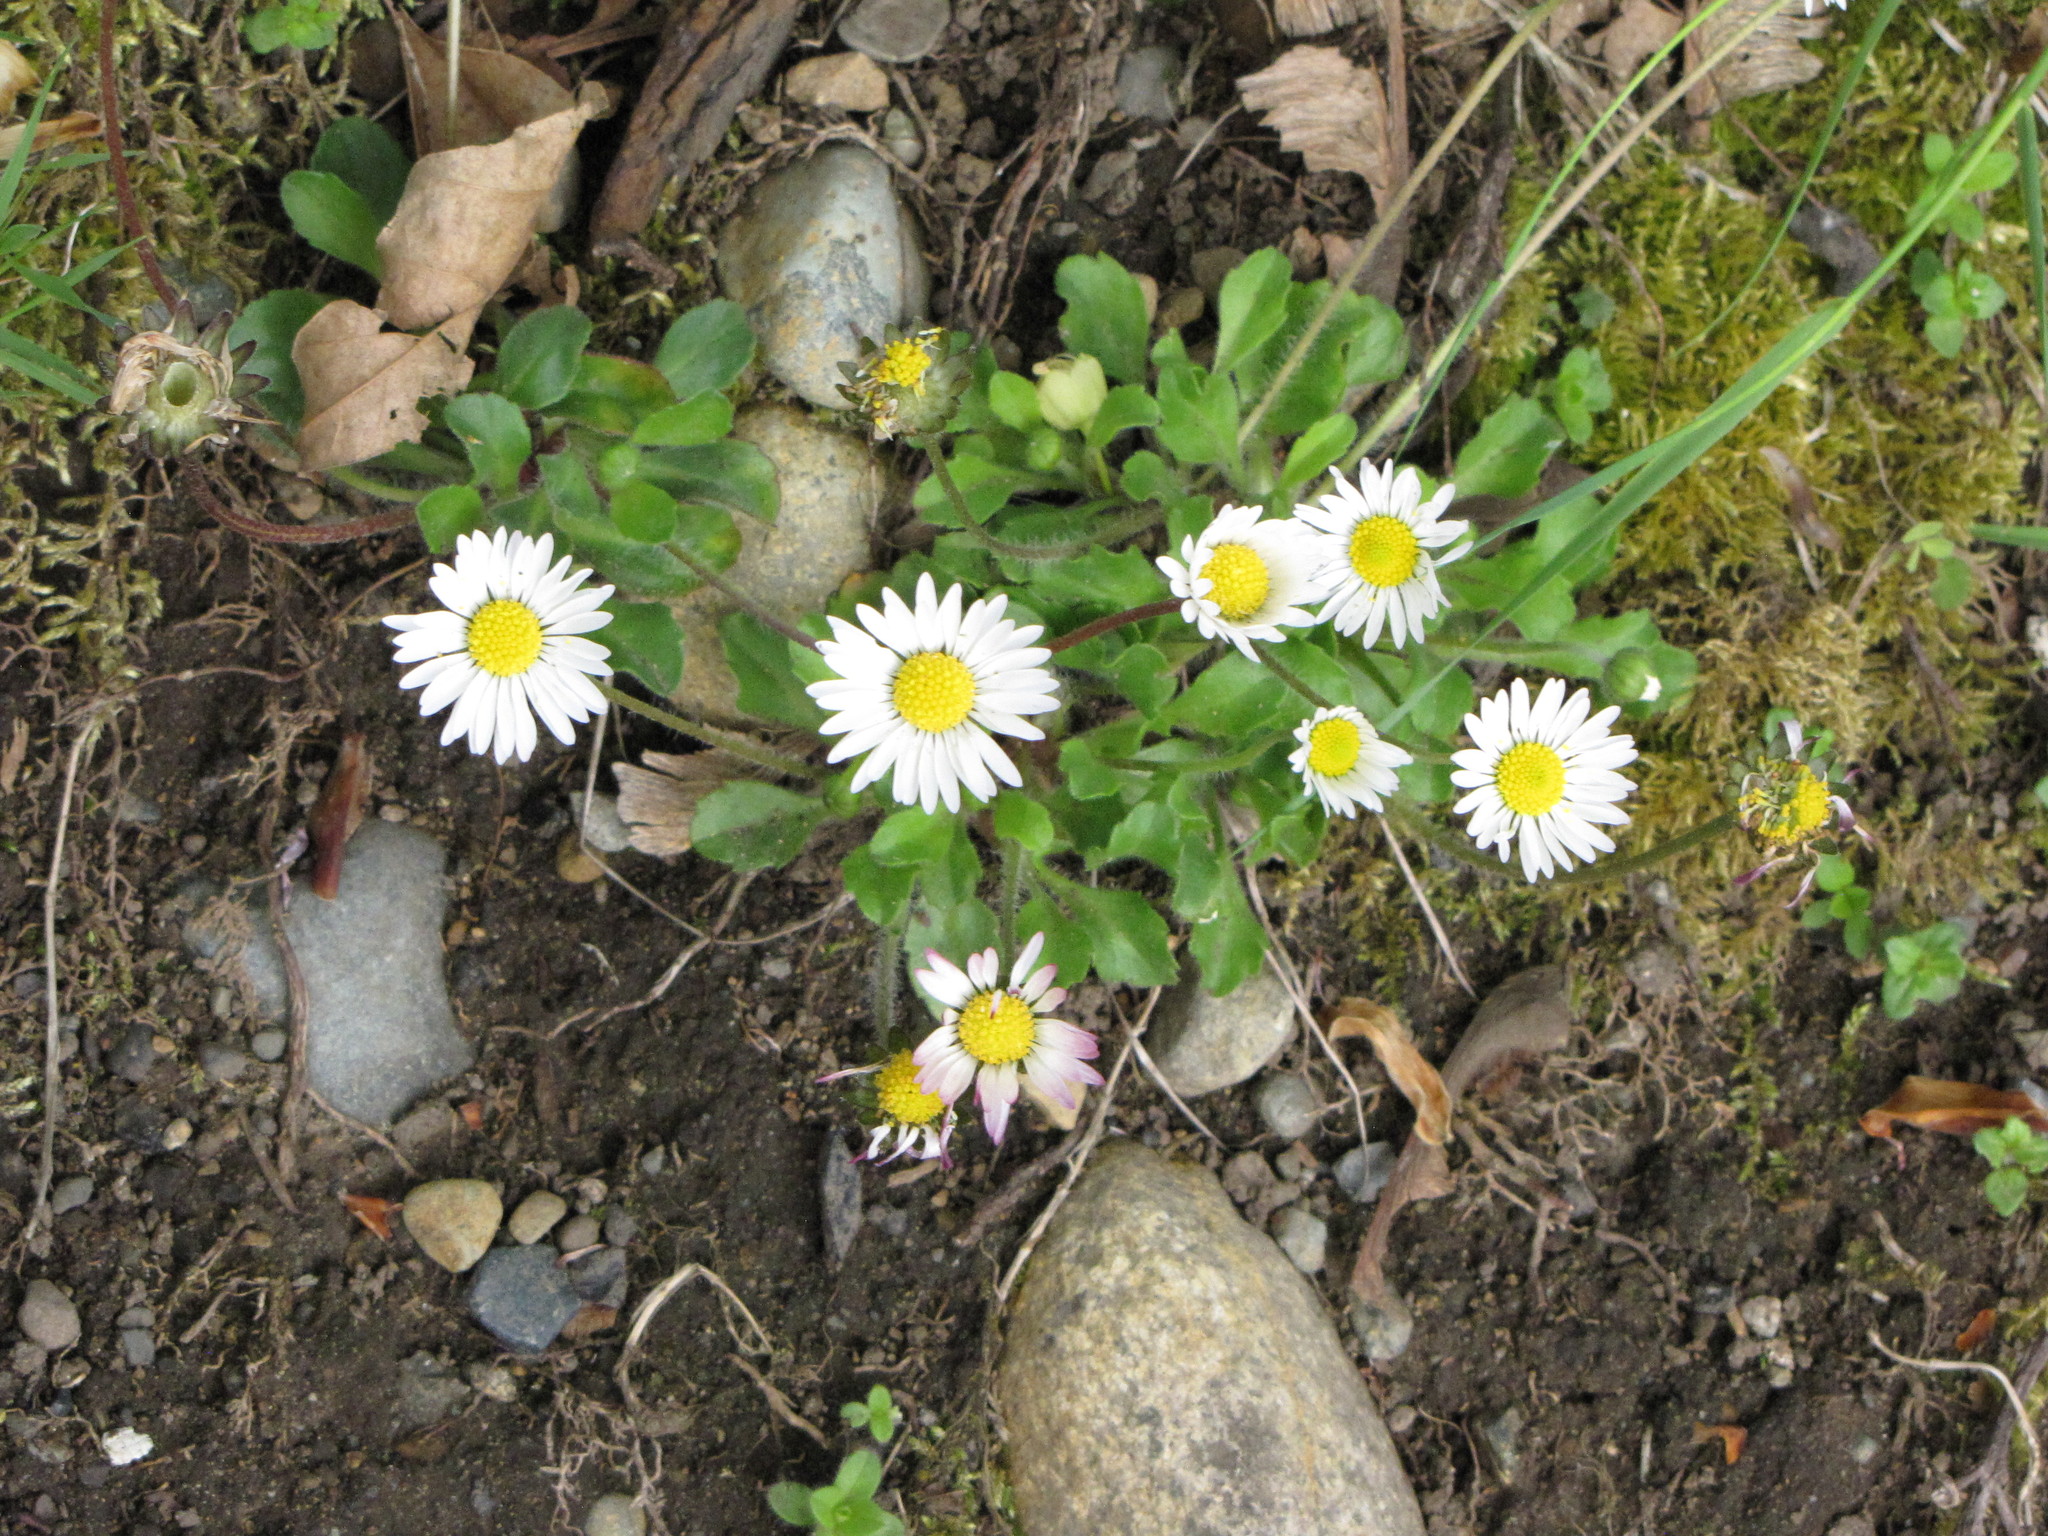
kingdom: Plantae
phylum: Tracheophyta
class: Magnoliopsida
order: Asterales
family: Asteraceae
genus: Bellis
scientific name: Bellis perennis
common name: Lawndaisy
